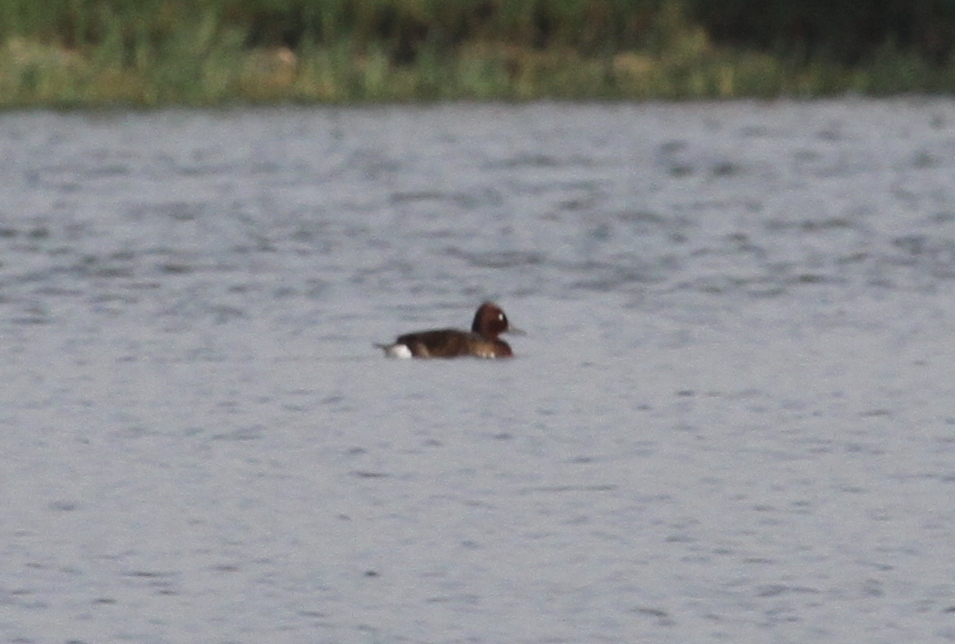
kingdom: Animalia
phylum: Chordata
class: Aves
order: Anseriformes
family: Anatidae
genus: Aythya
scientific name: Aythya nyroca
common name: Ferruginous duck
